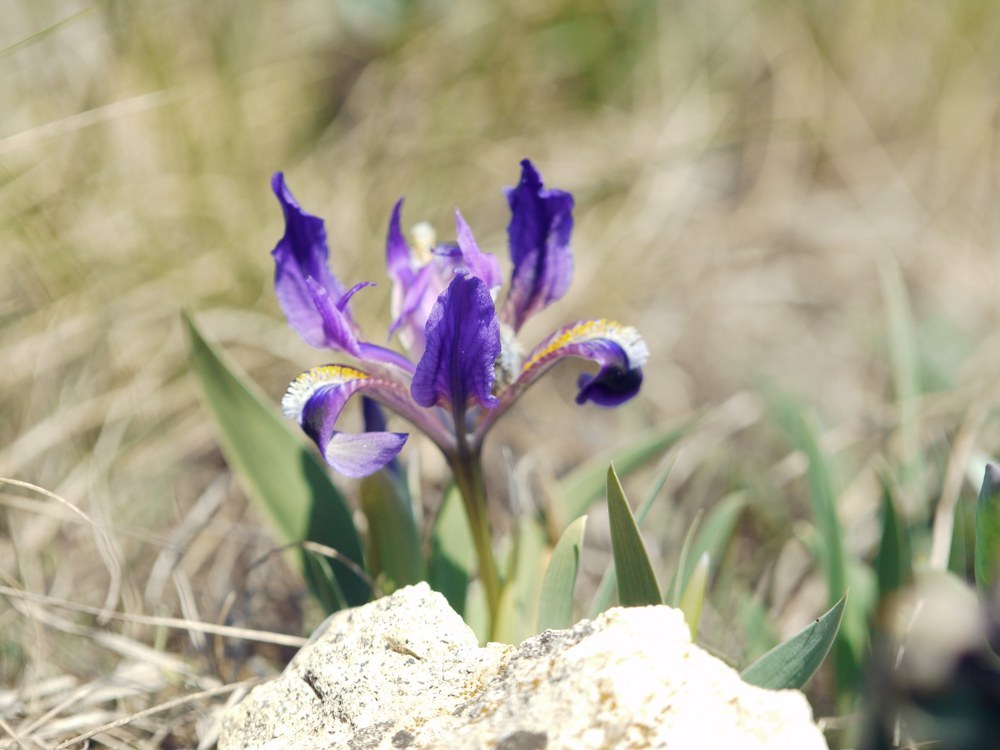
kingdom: Plantae
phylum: Tracheophyta
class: Liliopsida
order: Asparagales
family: Iridaceae
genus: Iris
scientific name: Iris pumila
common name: Dwarf iris
